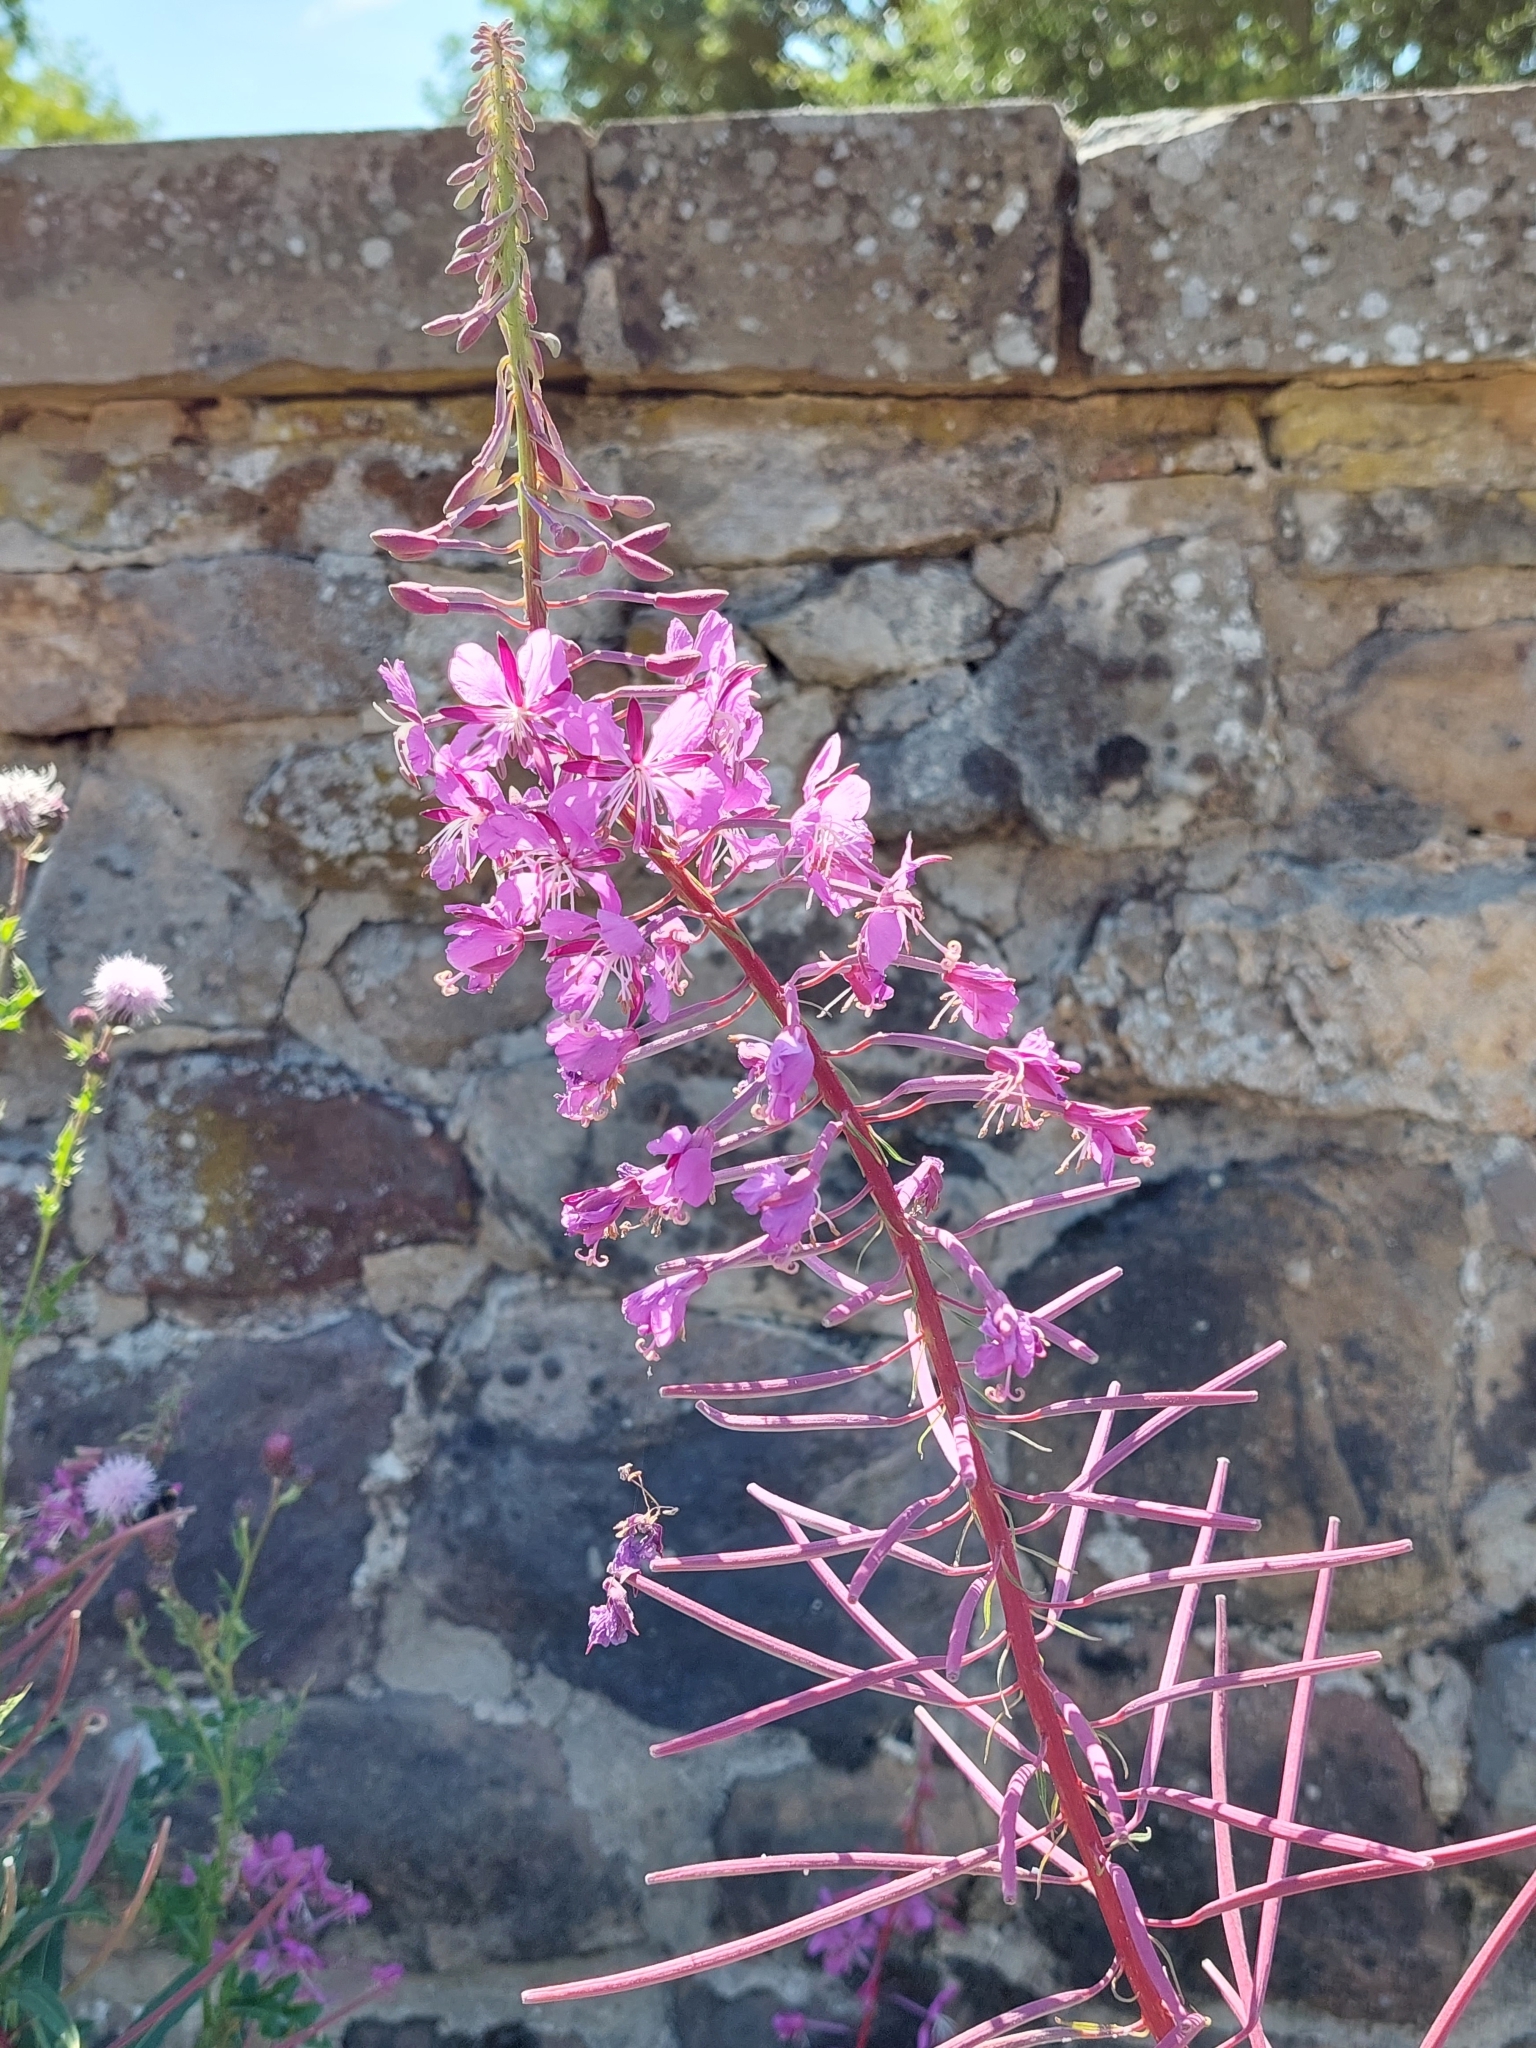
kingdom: Plantae
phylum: Tracheophyta
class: Magnoliopsida
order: Myrtales
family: Onagraceae
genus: Chamaenerion
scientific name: Chamaenerion angustifolium
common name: Fireweed
